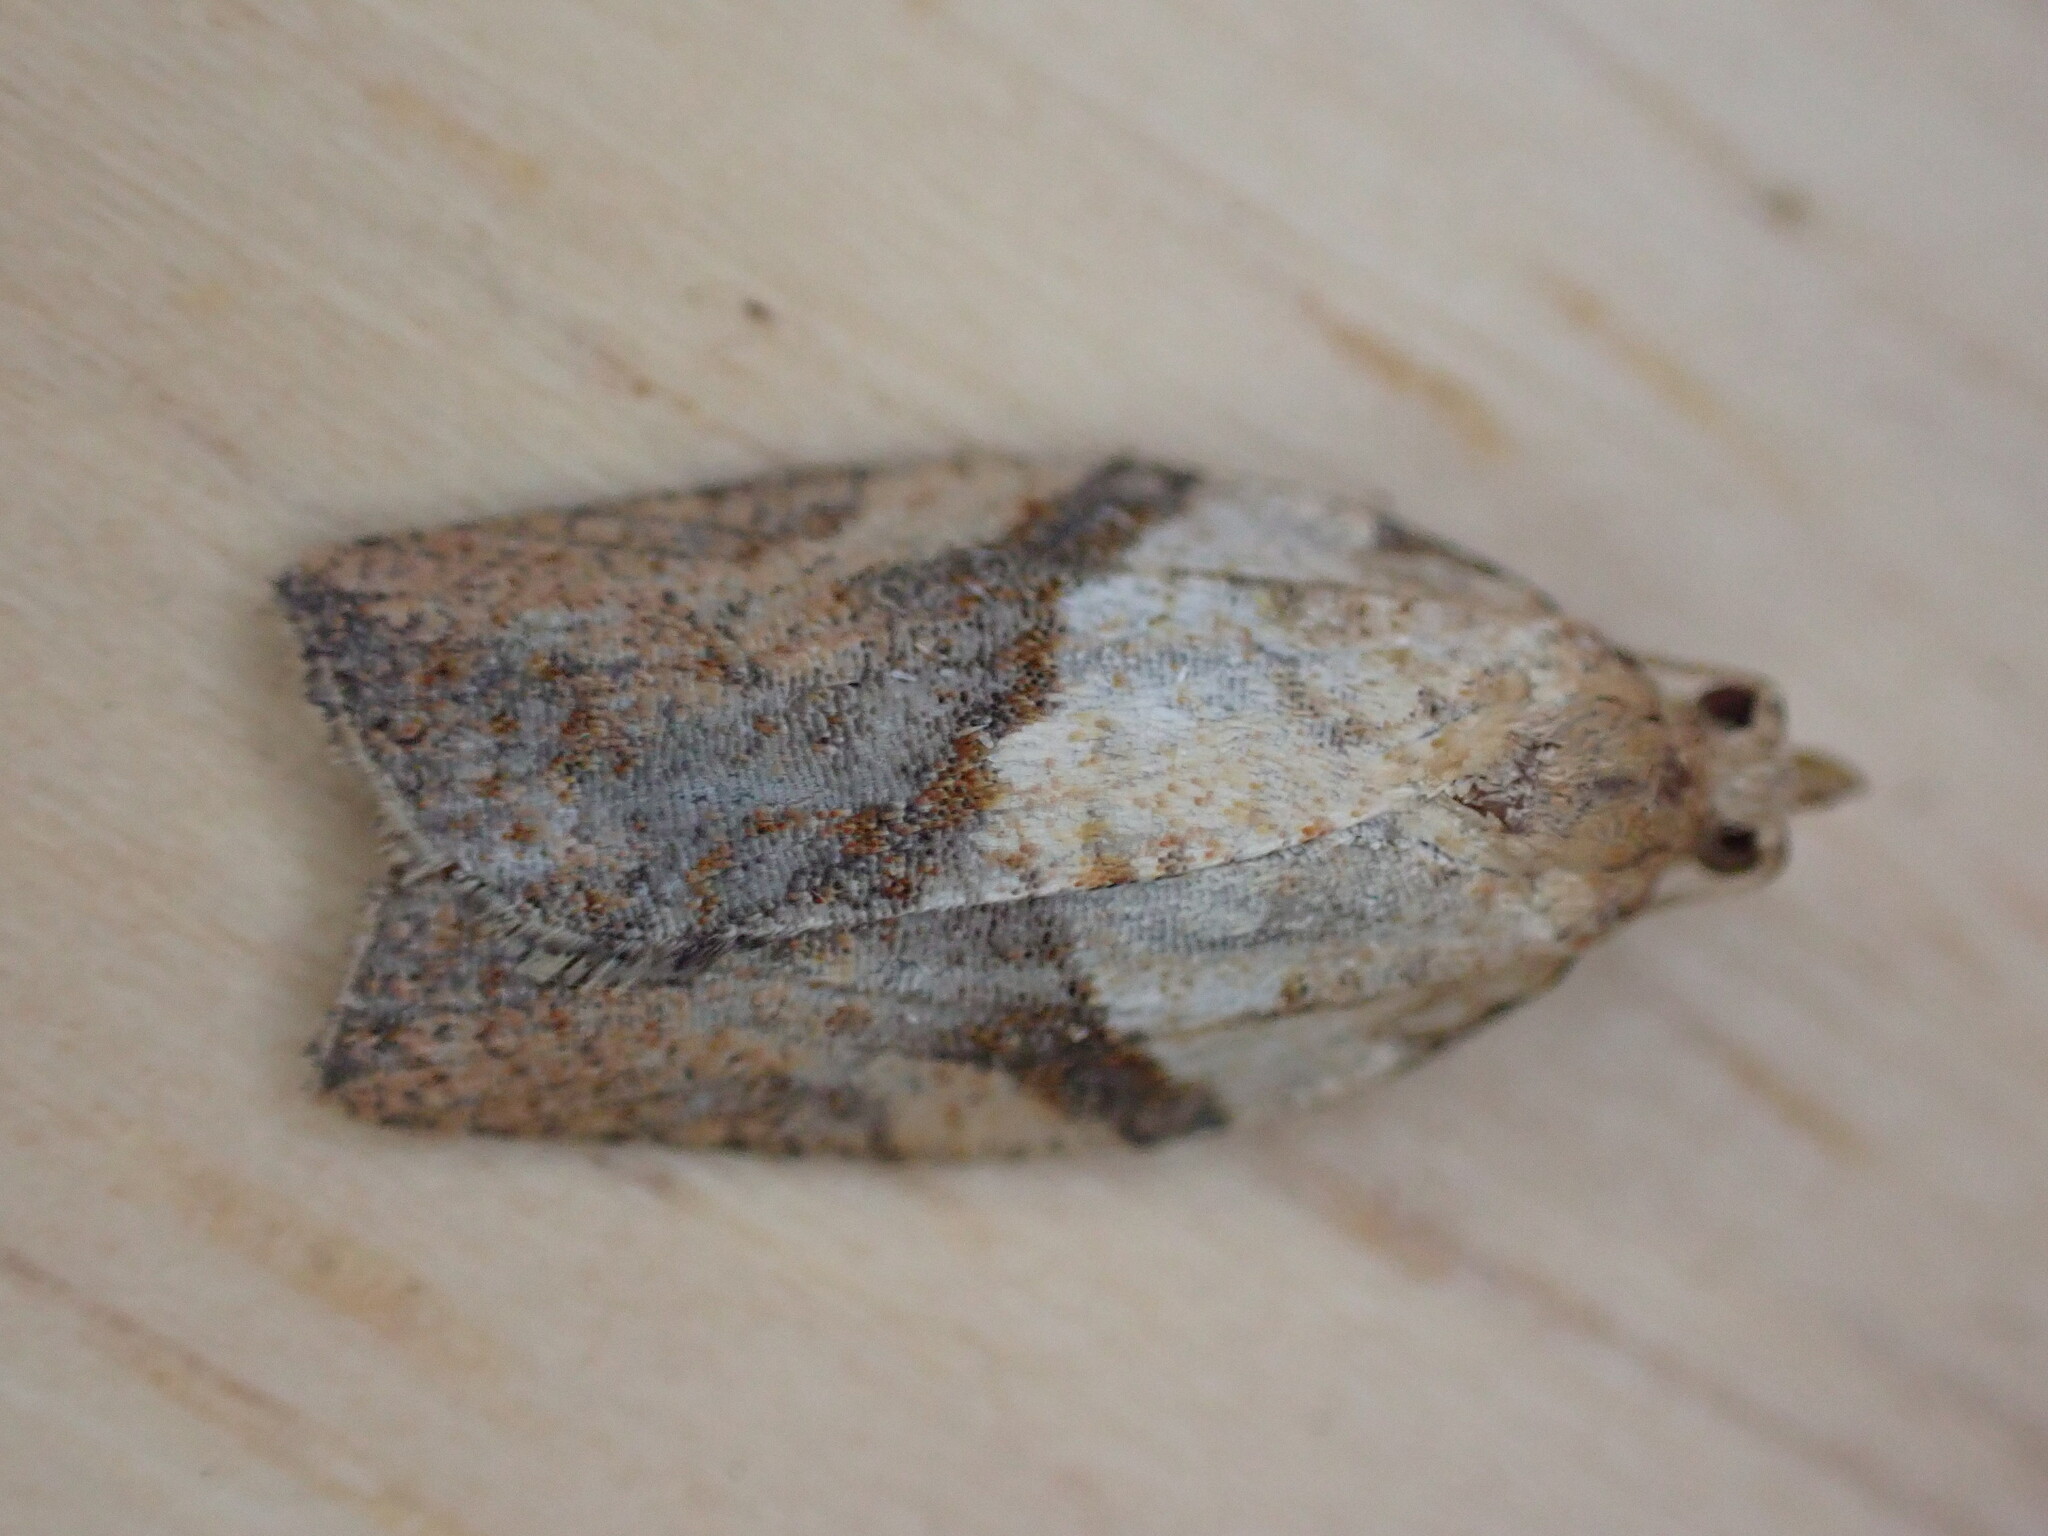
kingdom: Animalia
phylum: Arthropoda
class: Insecta
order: Lepidoptera
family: Tortricidae
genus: Epiphyas
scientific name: Epiphyas postvittana
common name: Light brown apple moth
